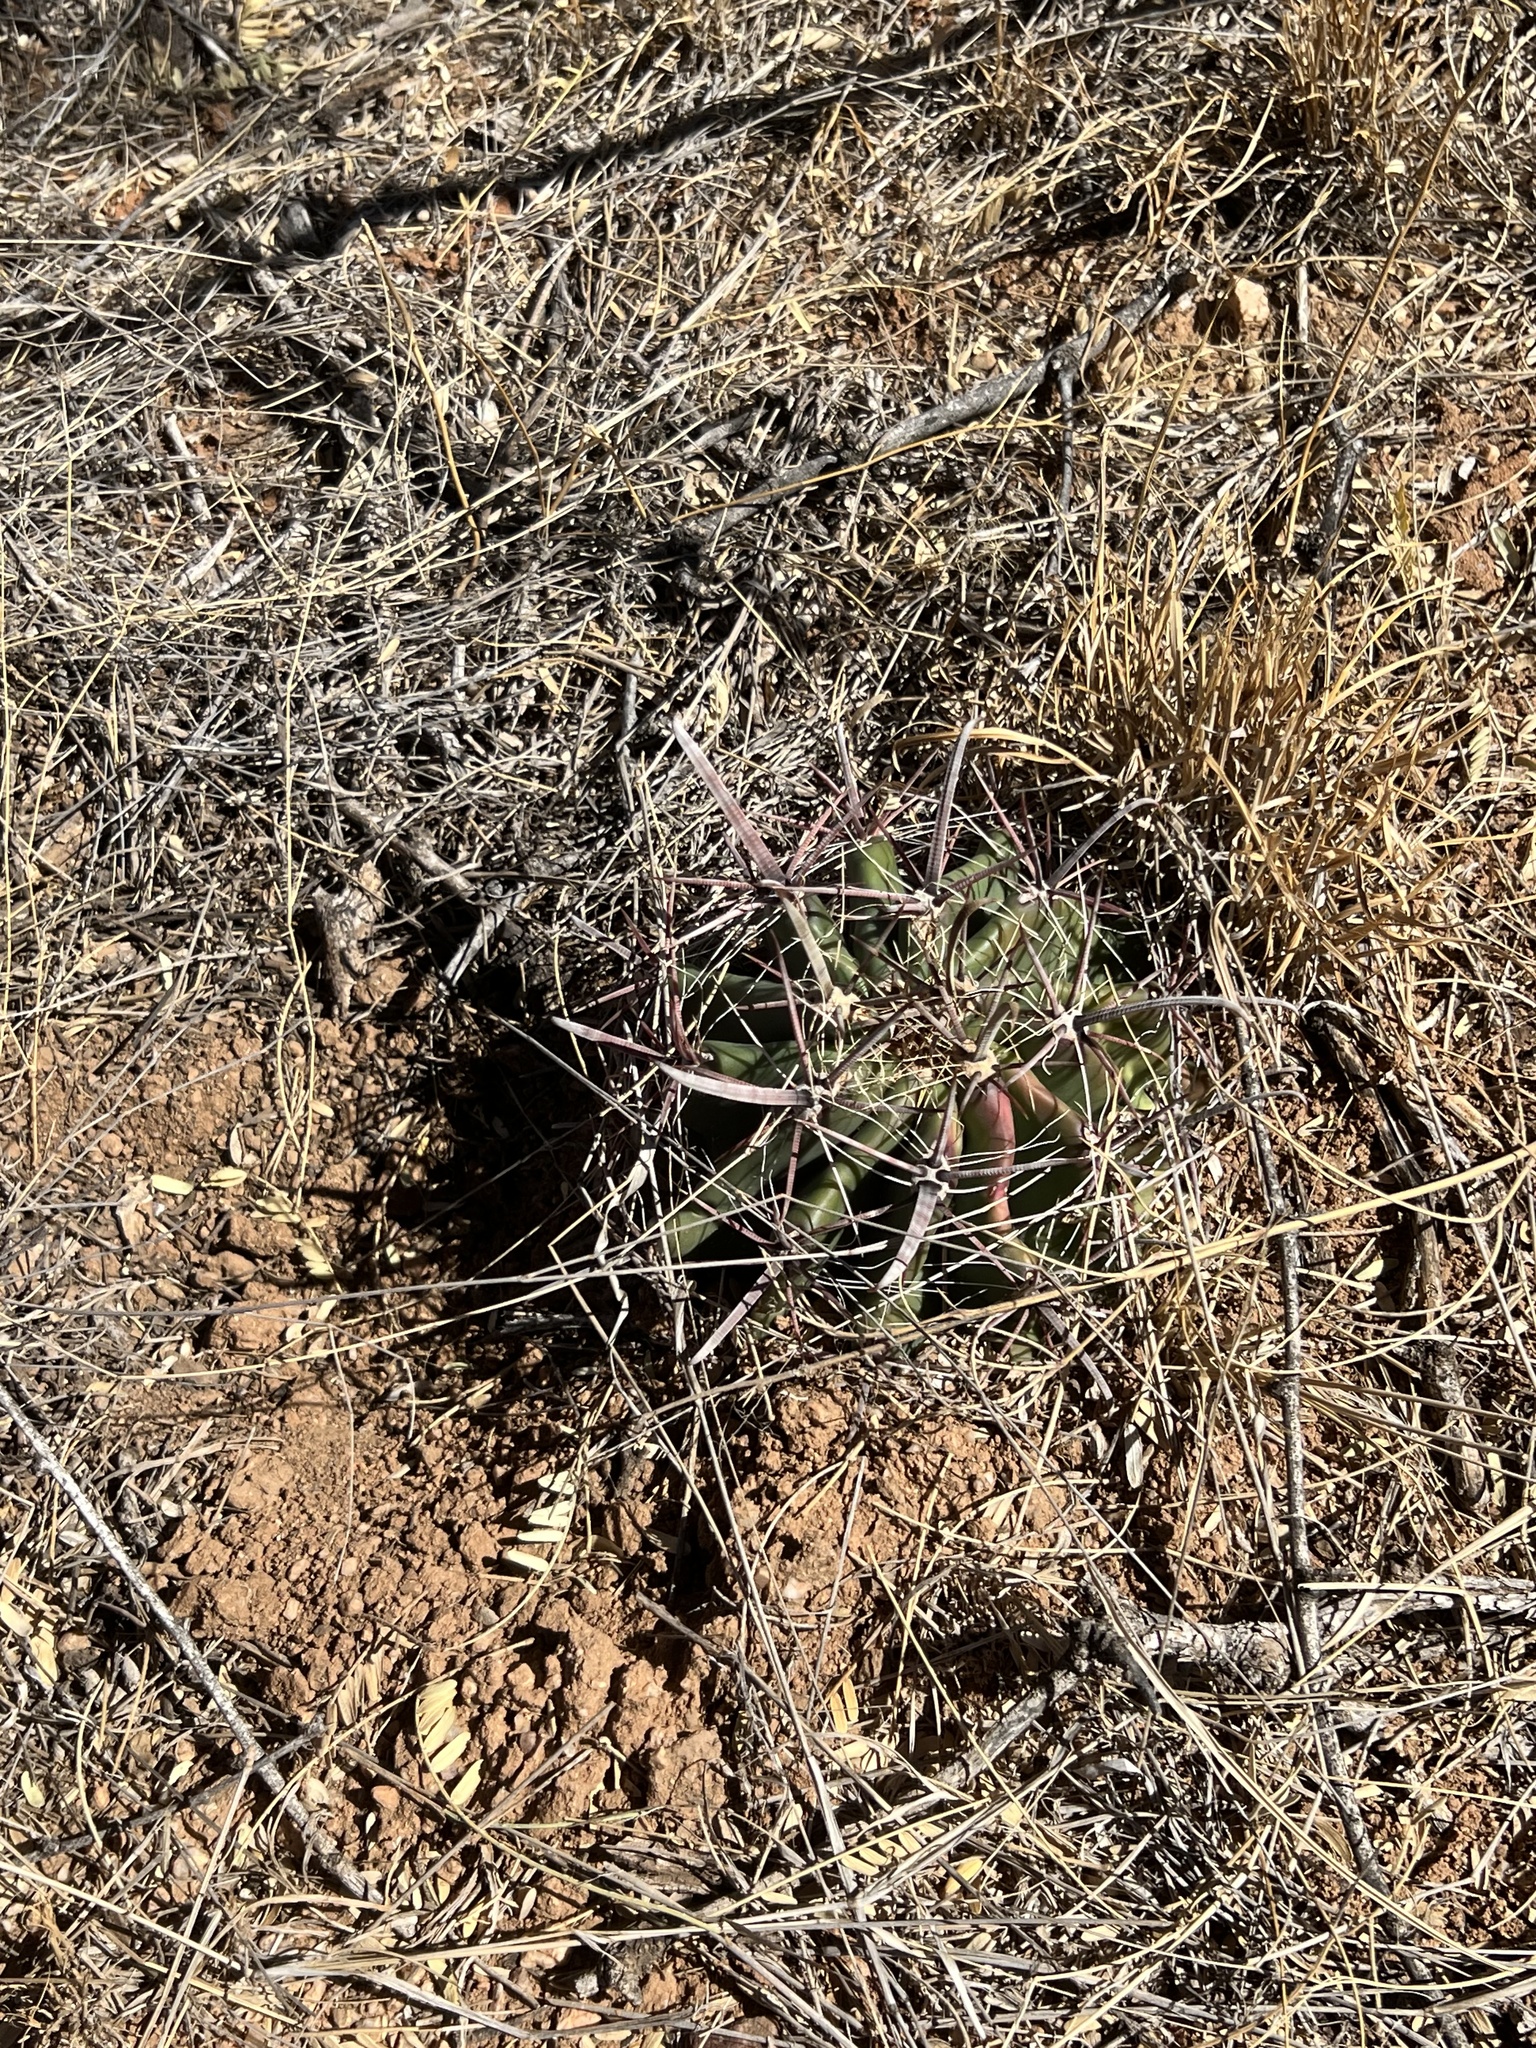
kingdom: Plantae
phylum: Tracheophyta
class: Magnoliopsida
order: Caryophyllales
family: Cactaceae
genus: Ferocactus
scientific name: Ferocactus wislizeni
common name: Candy barrel cactus
